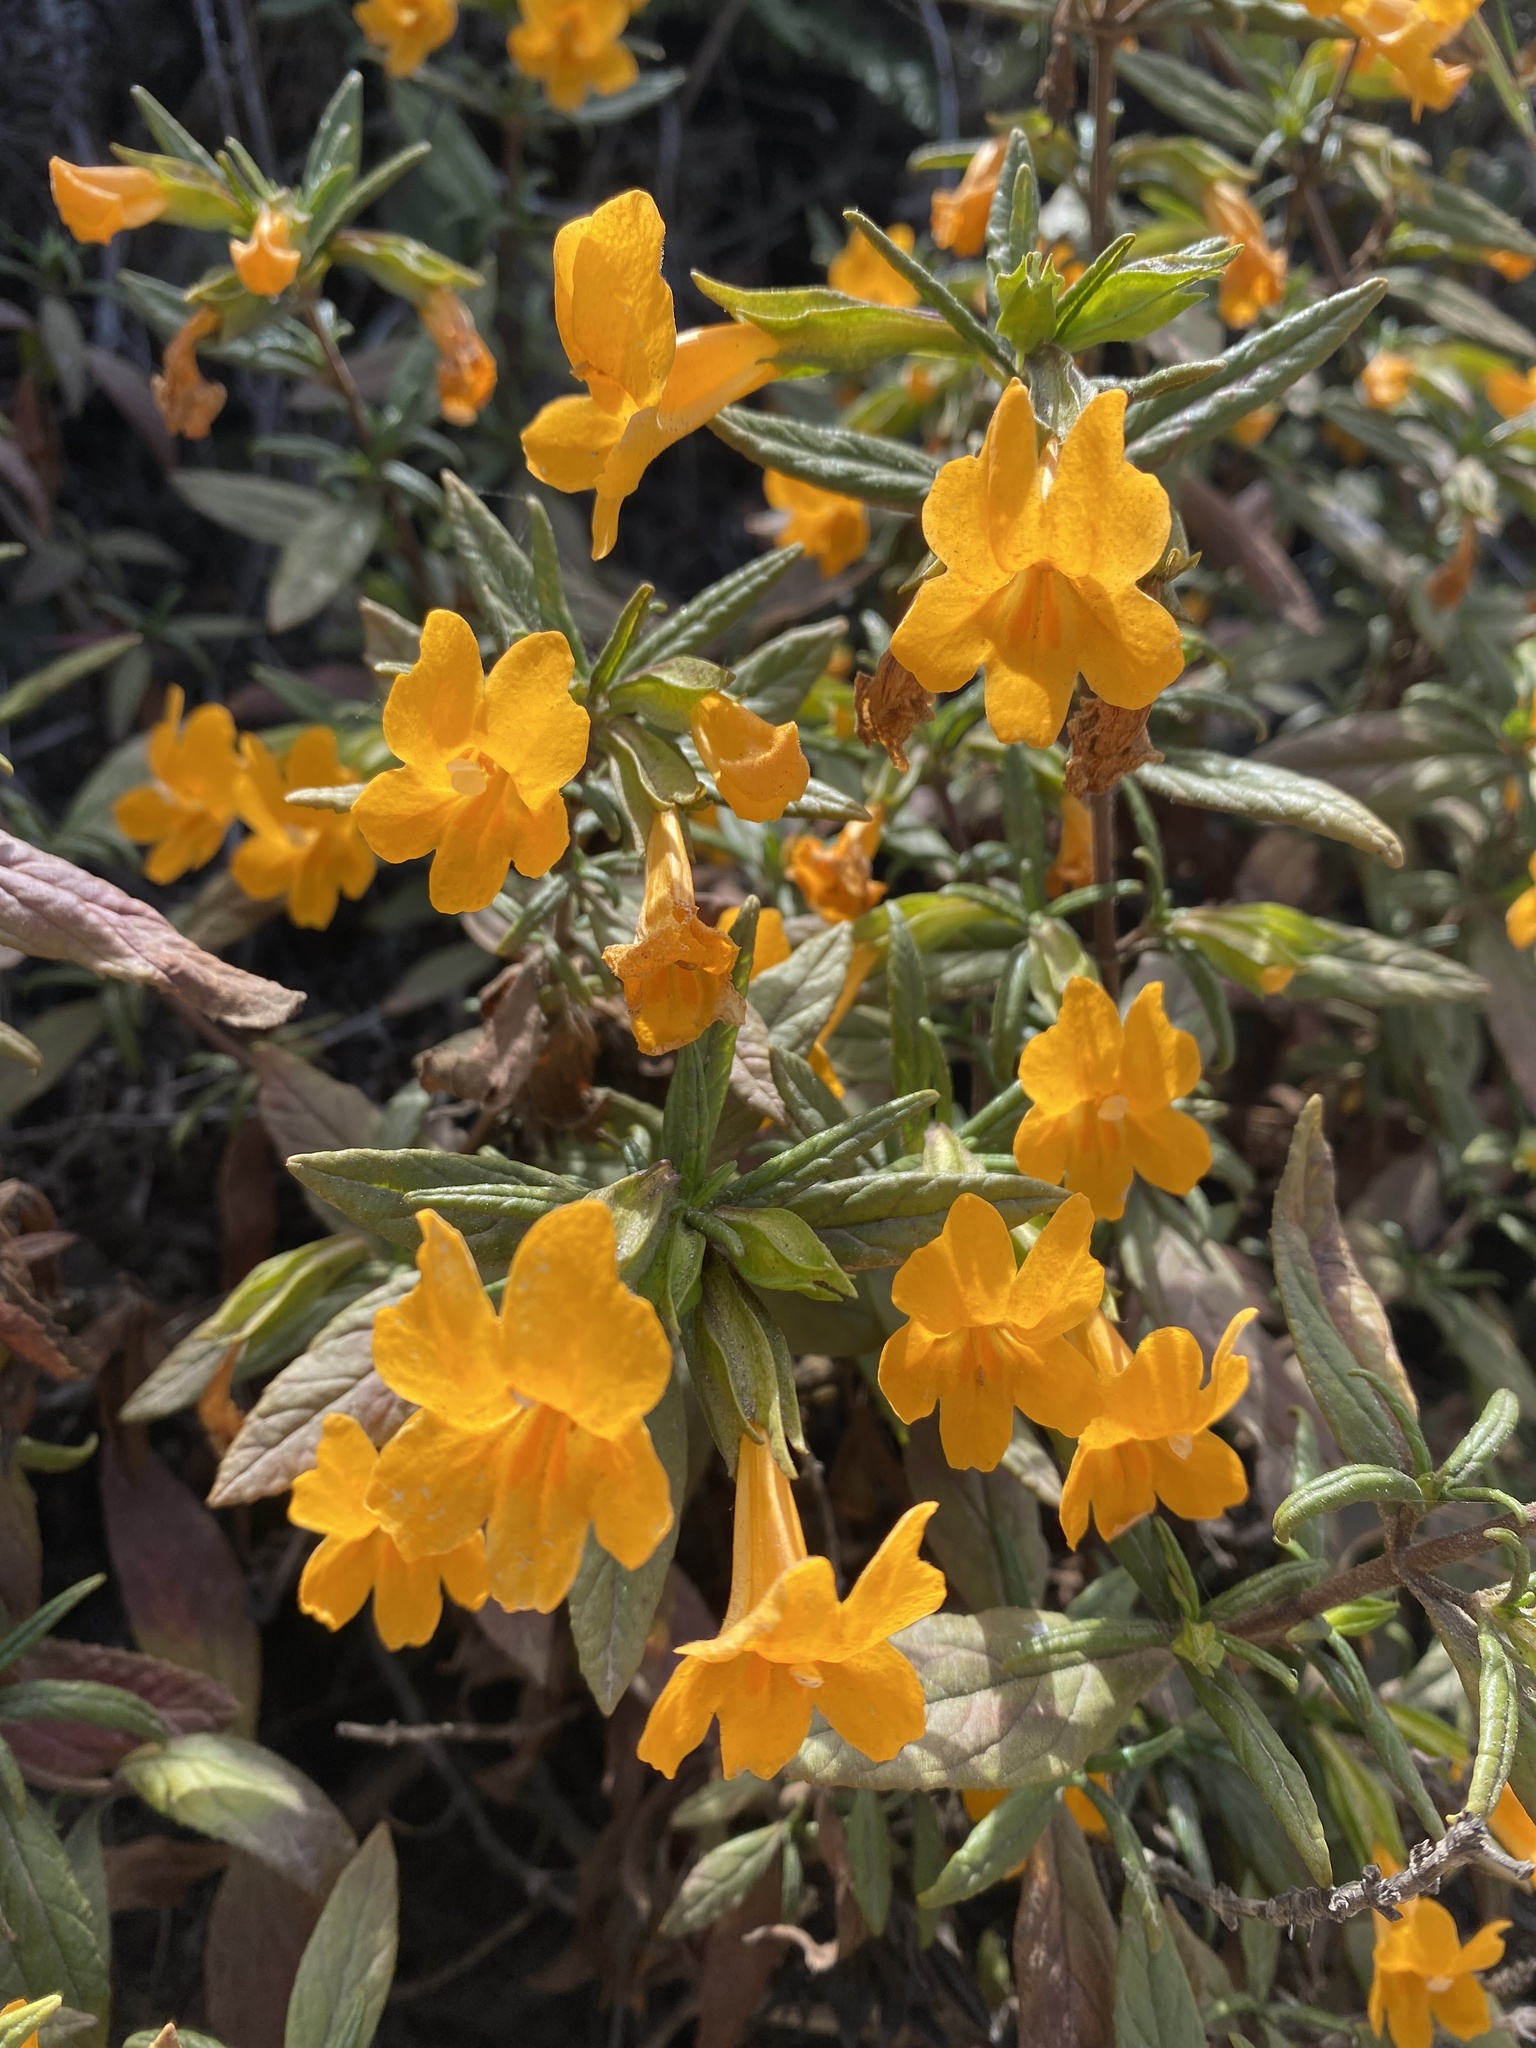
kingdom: Plantae
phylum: Tracheophyta
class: Magnoliopsida
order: Lamiales
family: Phrymaceae
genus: Diplacus
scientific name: Diplacus aurantiacus
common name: Bush monkey-flower
